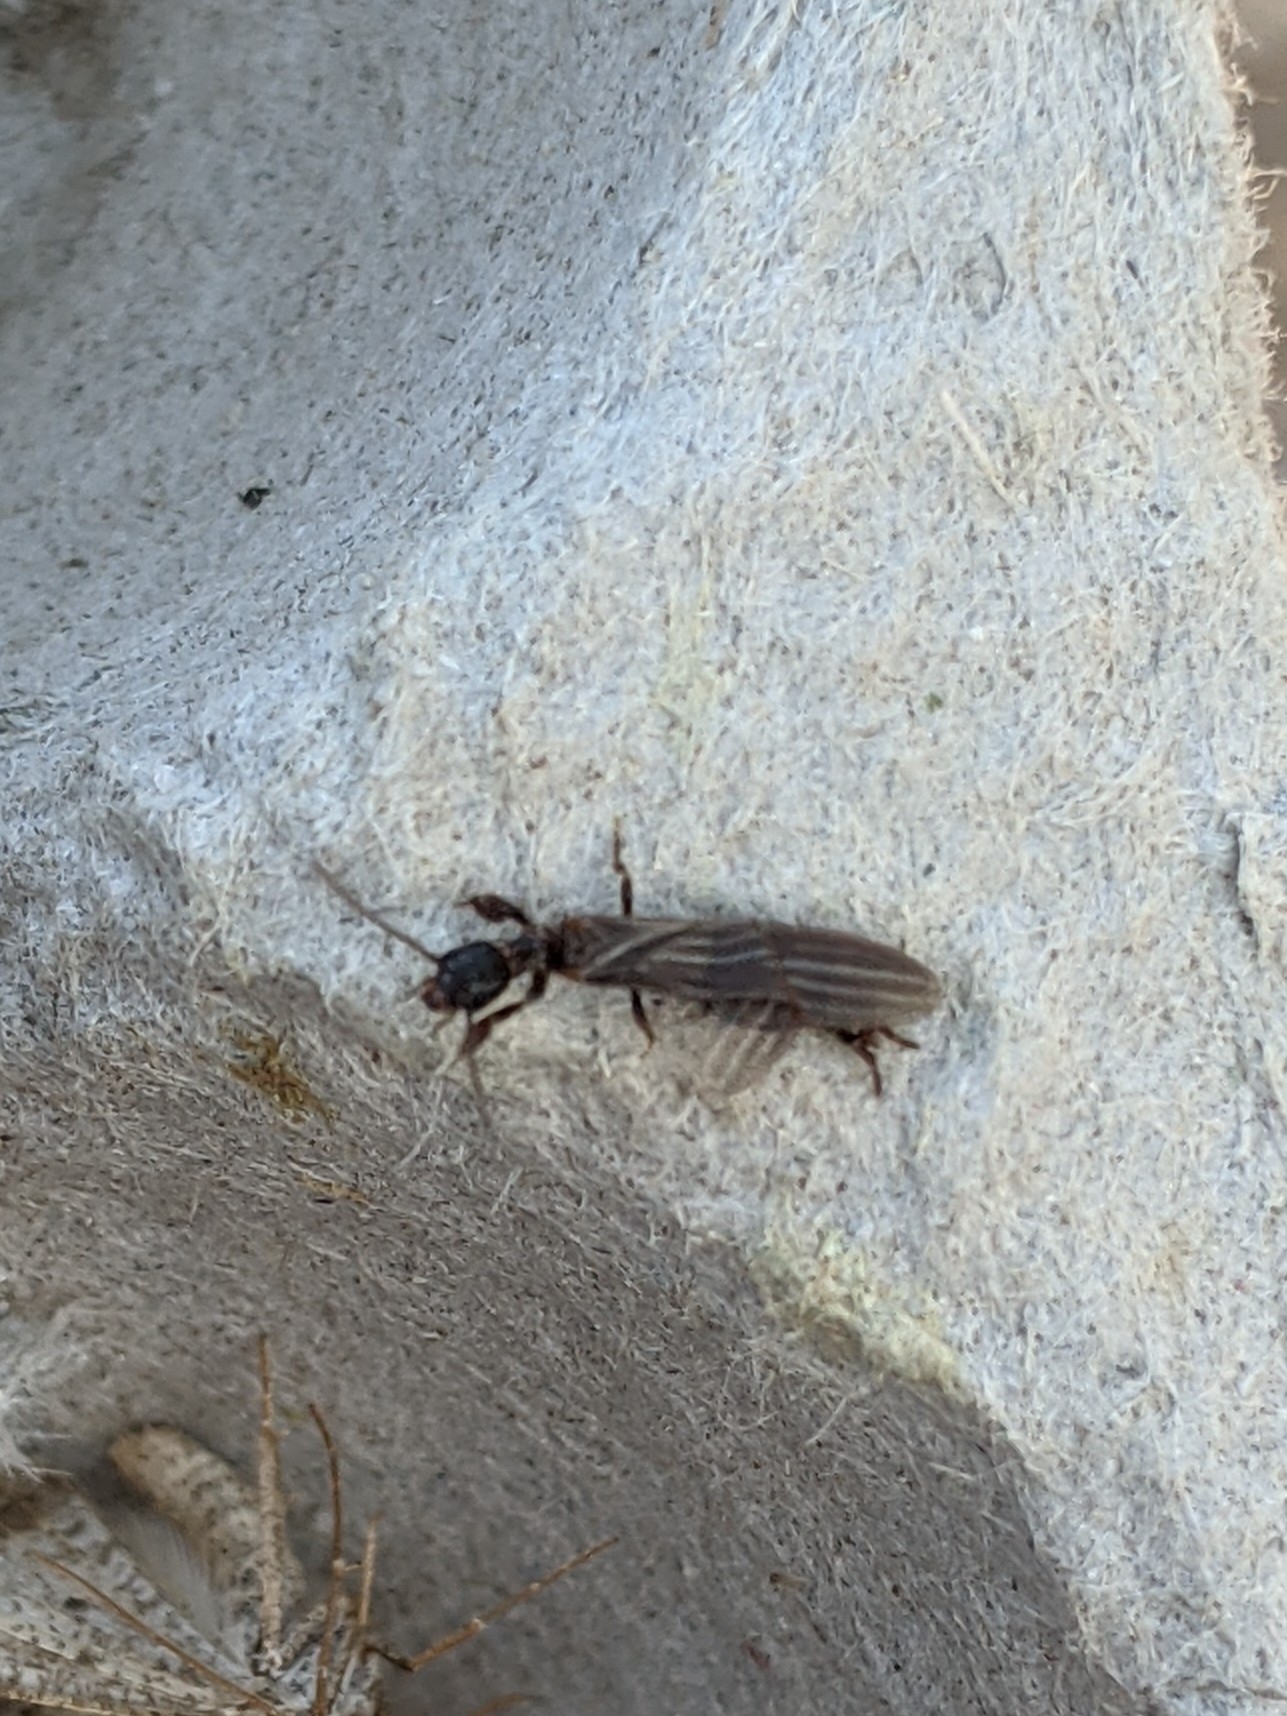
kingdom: Animalia
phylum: Arthropoda
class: Insecta
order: Embioptera
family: Oligotomidae
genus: Oligotoma
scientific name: Oligotoma nigra
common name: Black webspinner
